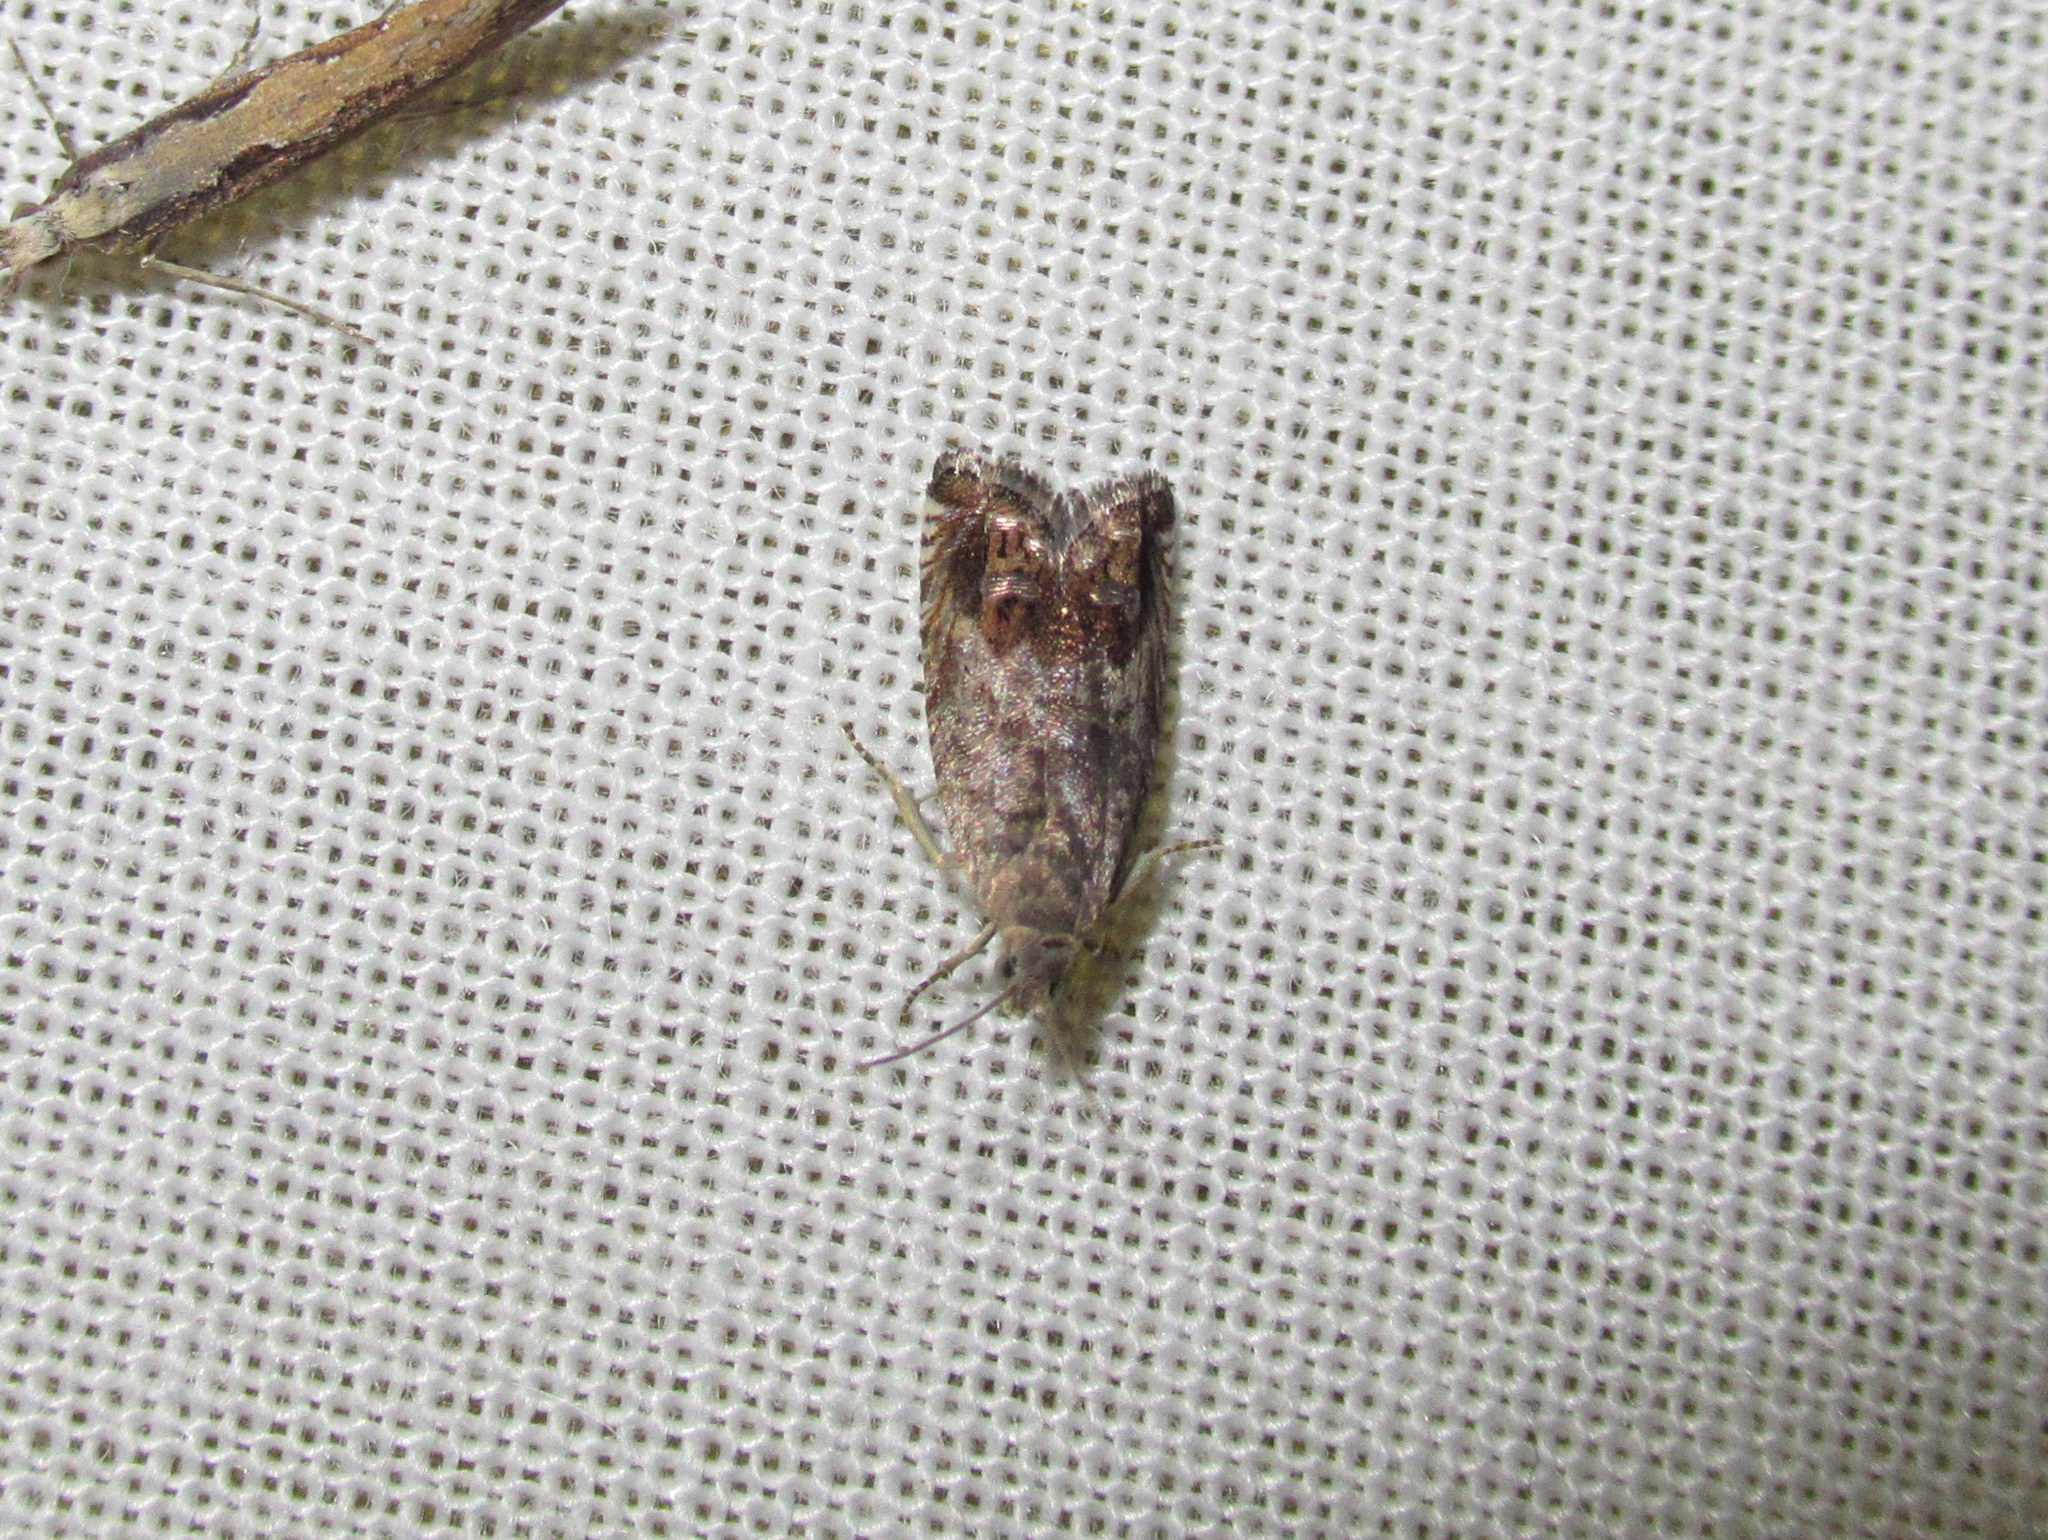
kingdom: Animalia
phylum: Arthropoda
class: Insecta
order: Lepidoptera
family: Tortricidae
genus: Cydia
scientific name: Cydia succedana
